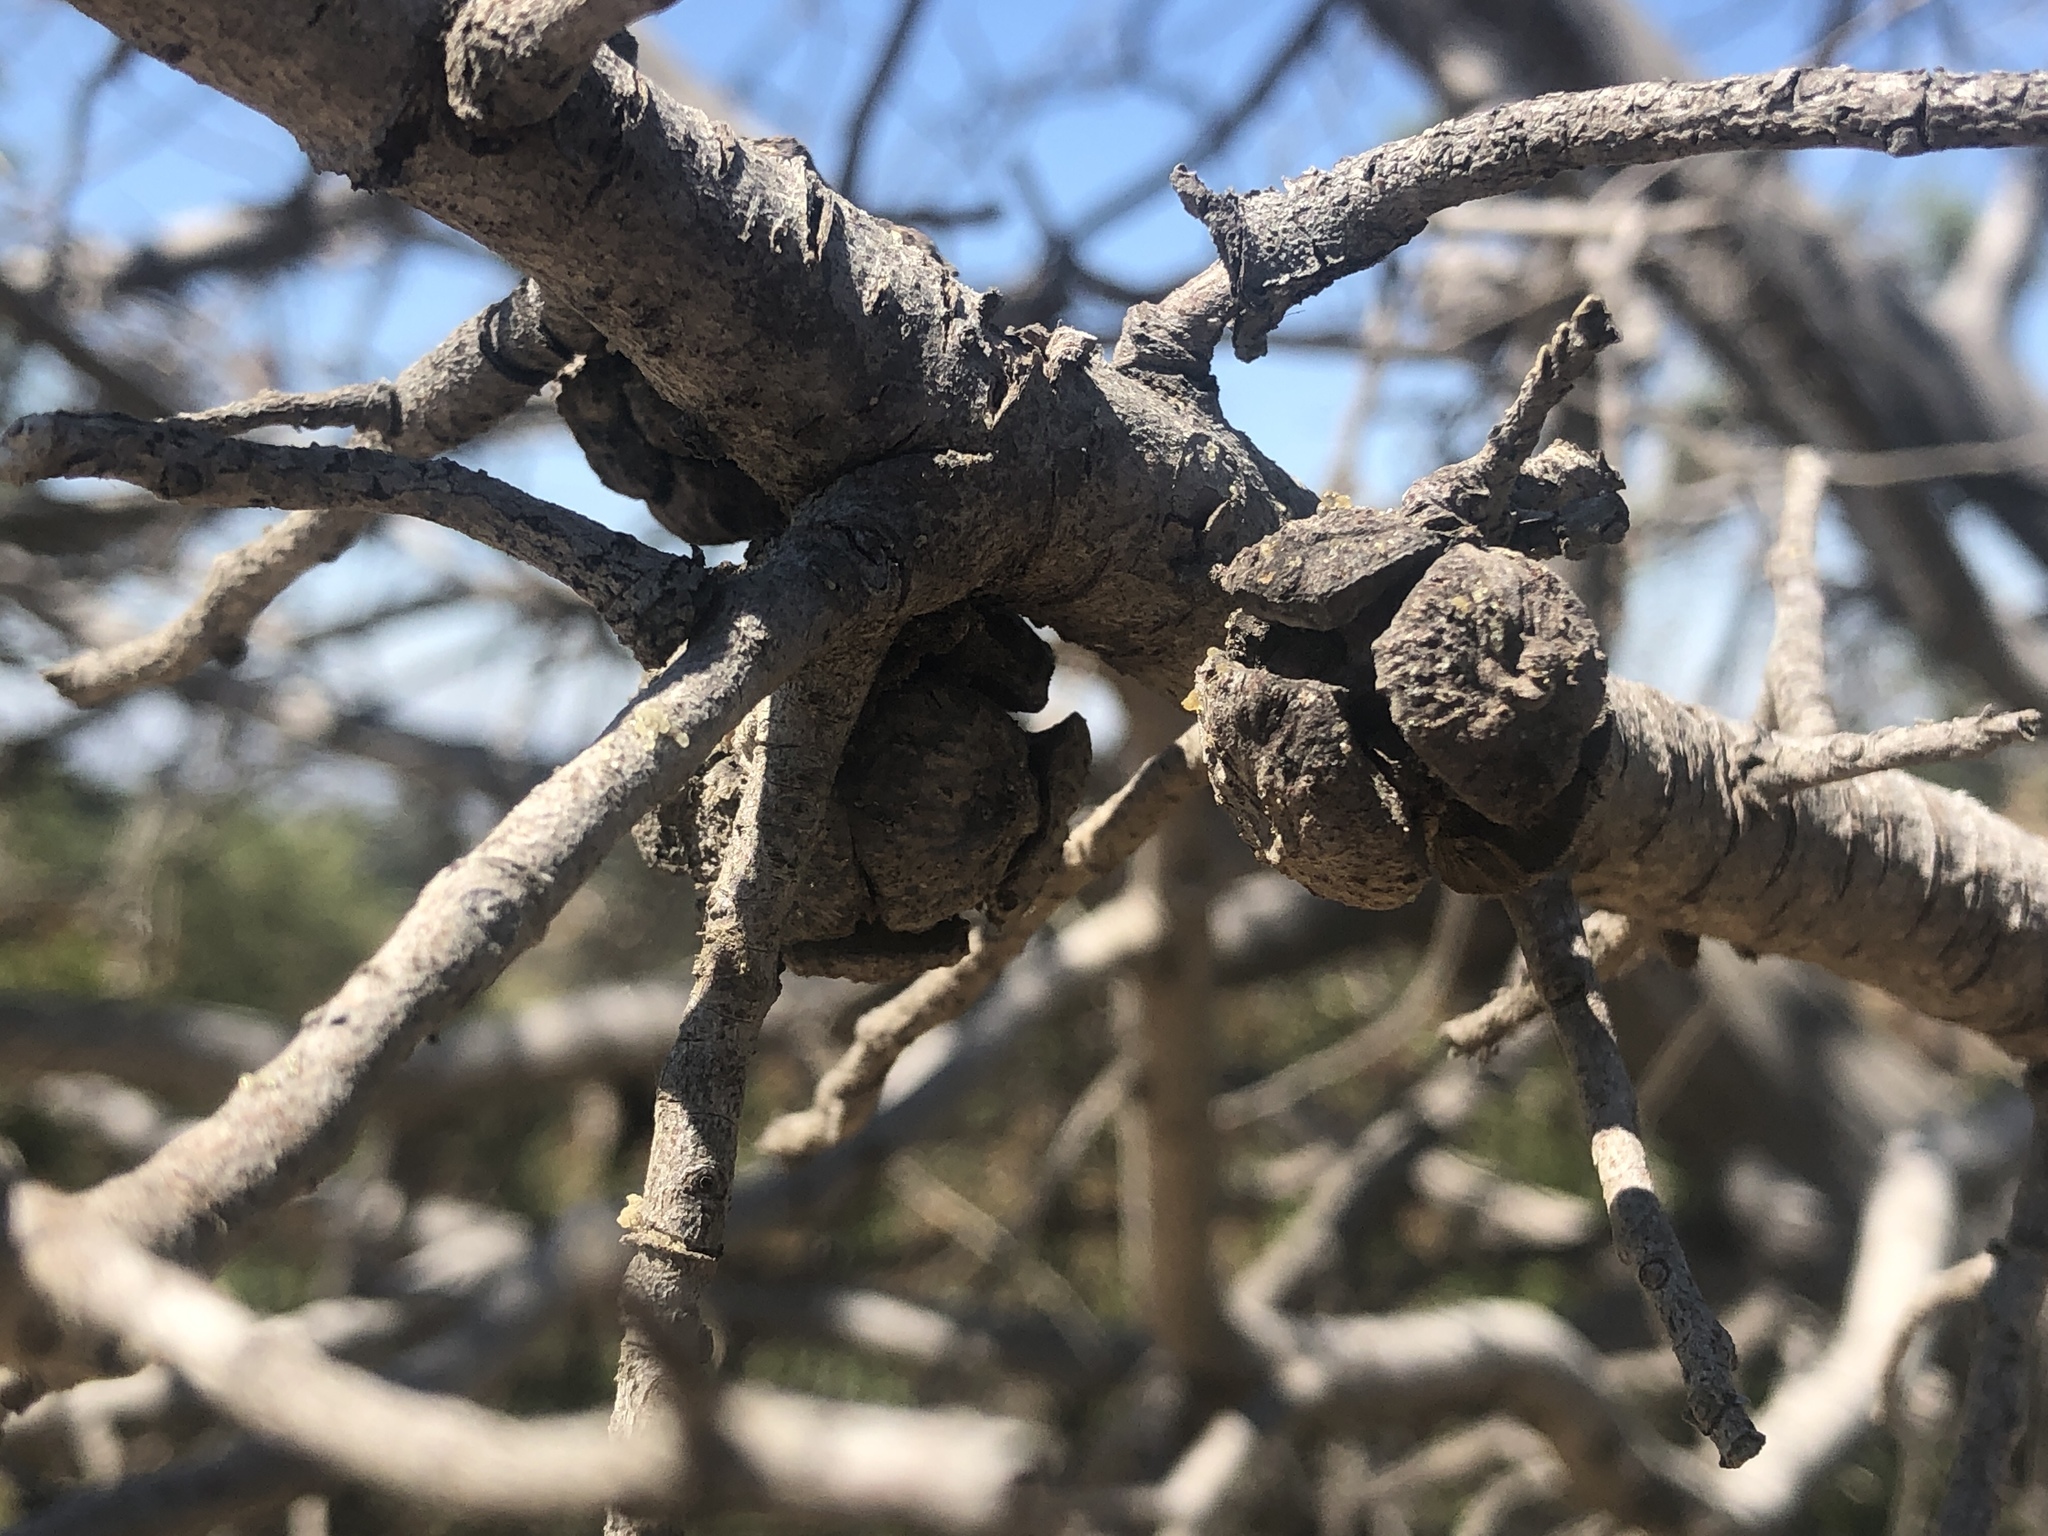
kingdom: Plantae
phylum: Tracheophyta
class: Pinopsida
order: Pinales
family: Cupressaceae
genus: Juniperus
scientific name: Juniperus californica
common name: California juniper
